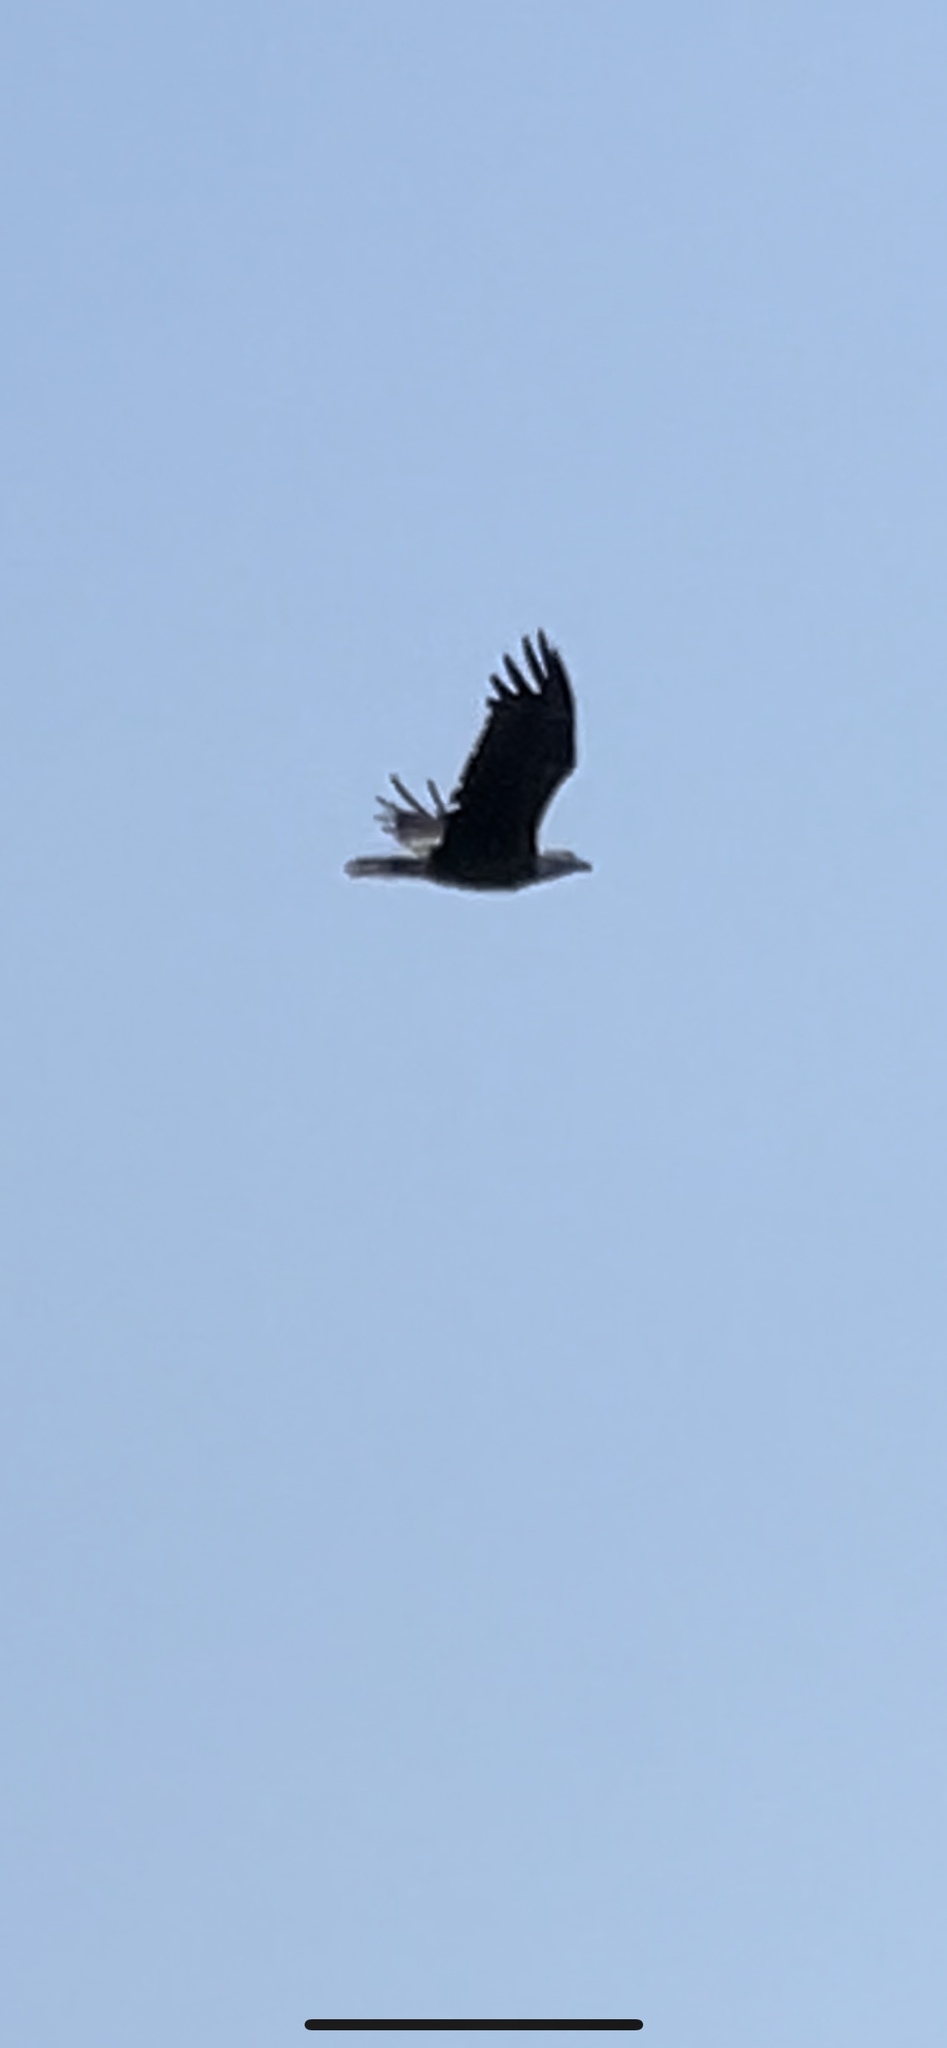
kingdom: Animalia
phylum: Chordata
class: Aves
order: Accipitriformes
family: Accipitridae
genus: Haliaeetus
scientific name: Haliaeetus leucocephalus
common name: Bald eagle
